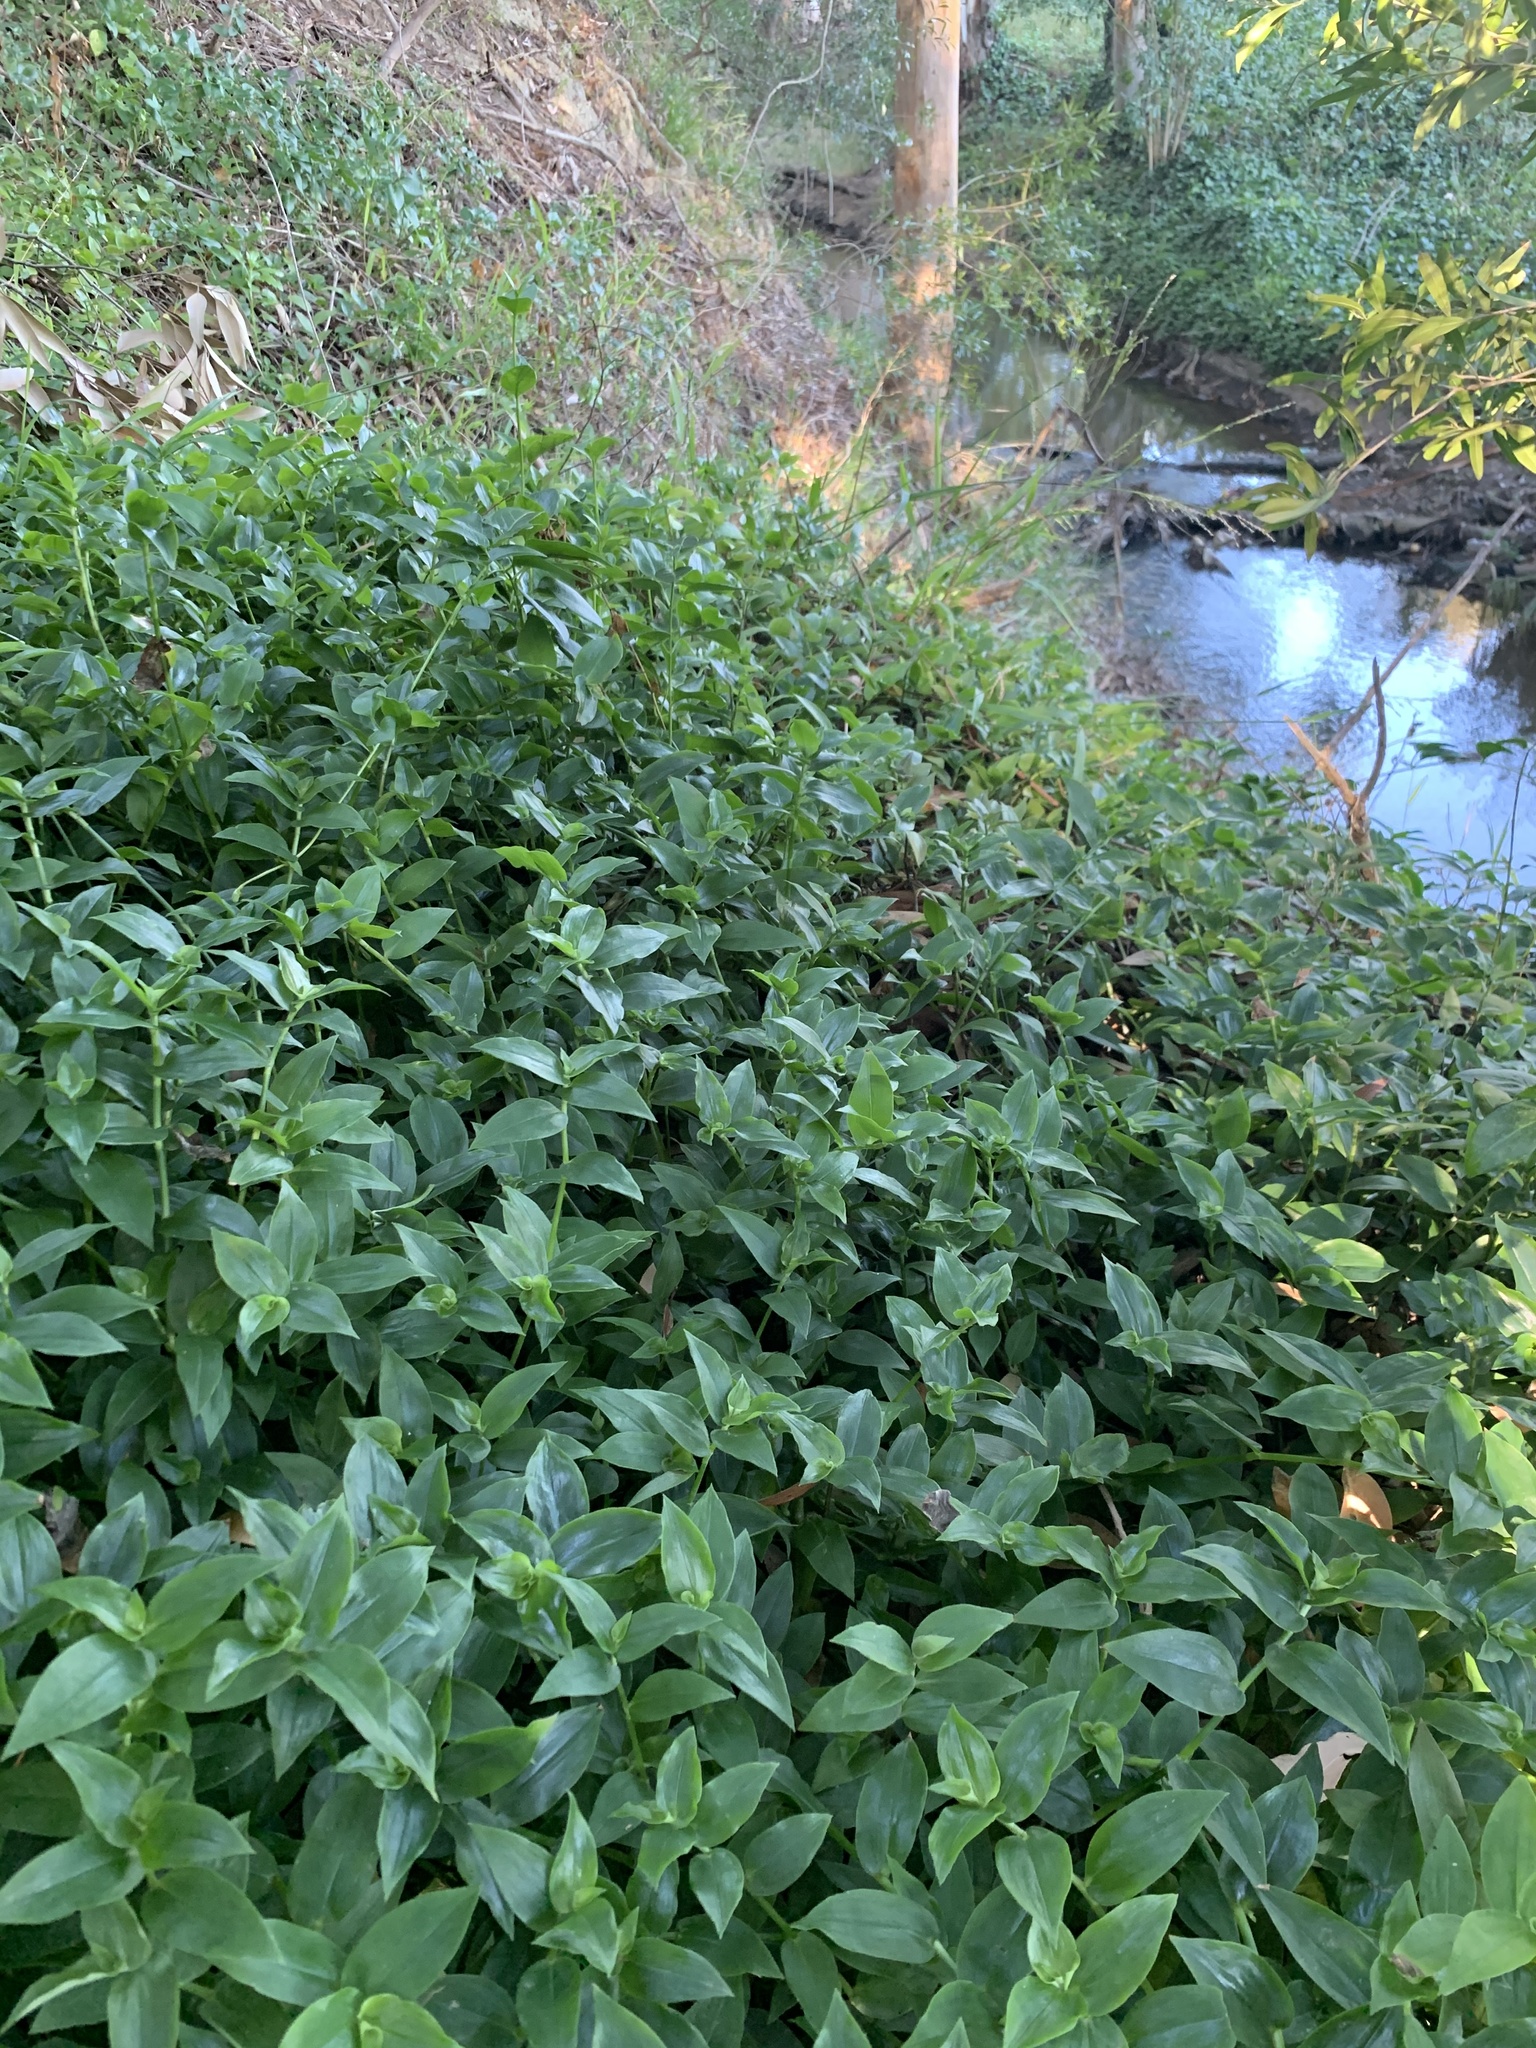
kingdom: Plantae
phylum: Tracheophyta
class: Liliopsida
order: Commelinales
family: Commelinaceae
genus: Tradescantia
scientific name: Tradescantia fluminensis
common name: Wandering-jew
